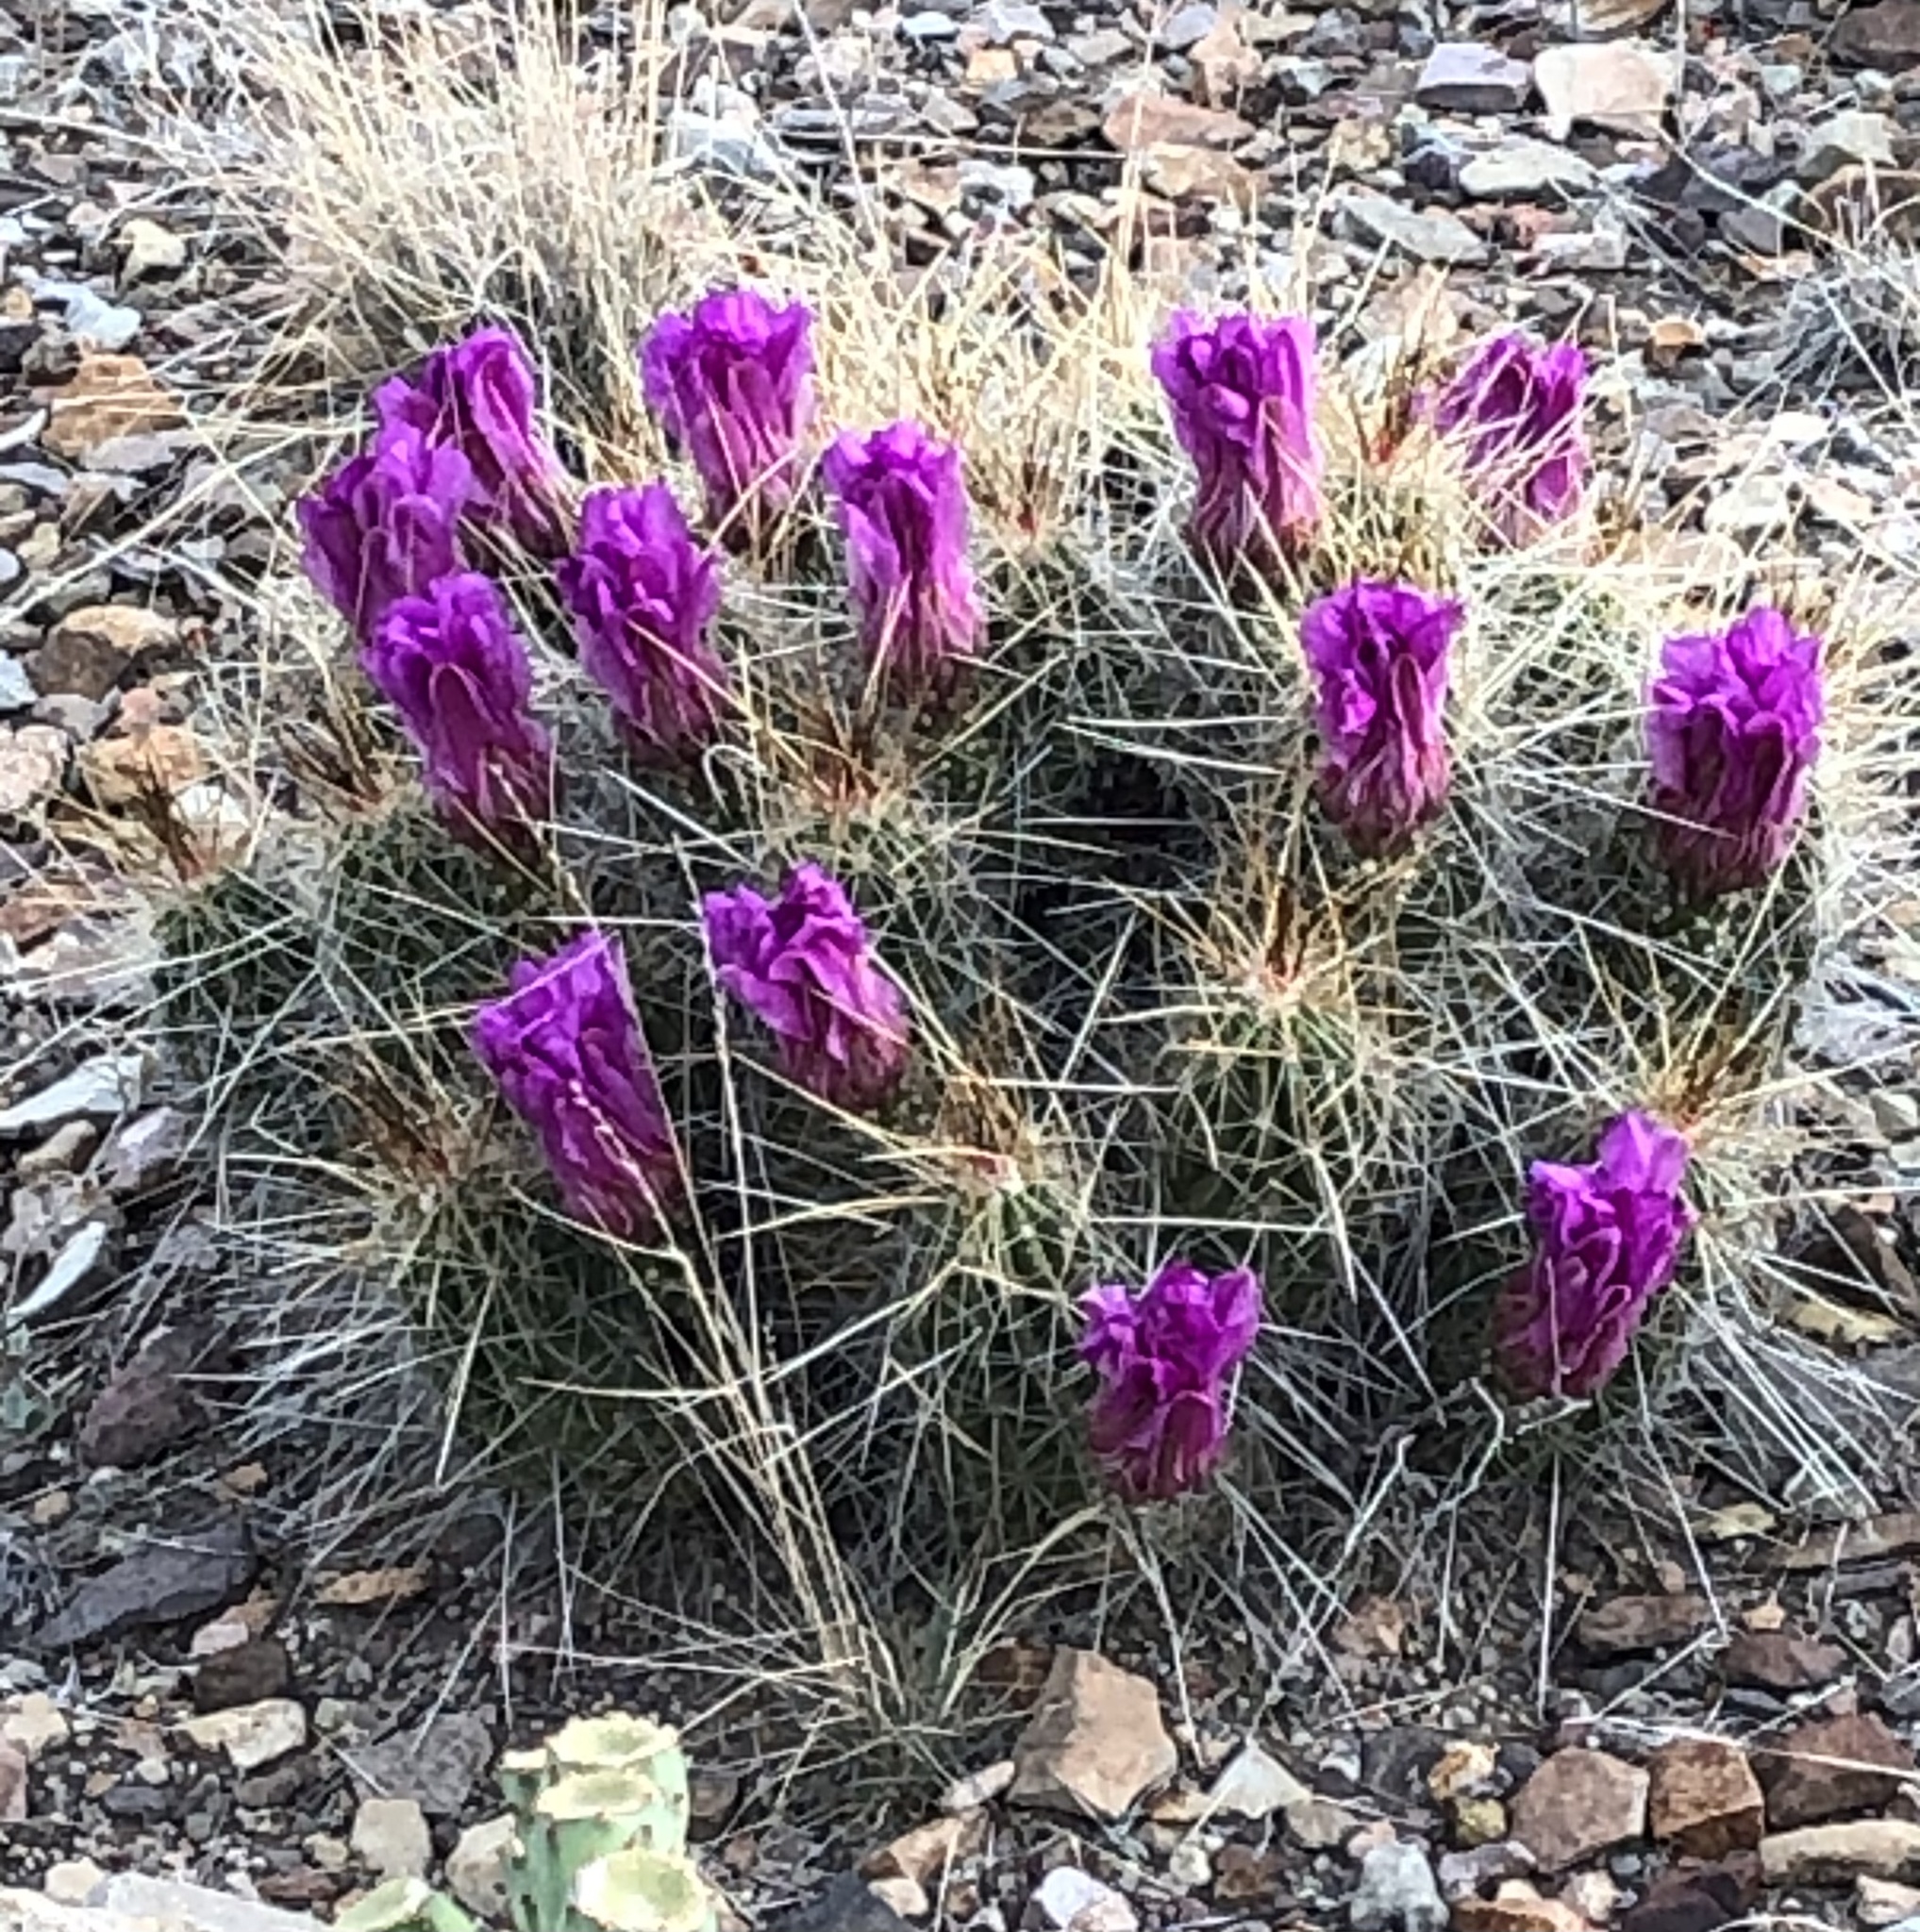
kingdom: Plantae
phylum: Tracheophyta
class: Magnoliopsida
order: Caryophyllales
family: Cactaceae
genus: Echinocereus
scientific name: Echinocereus stramineus
